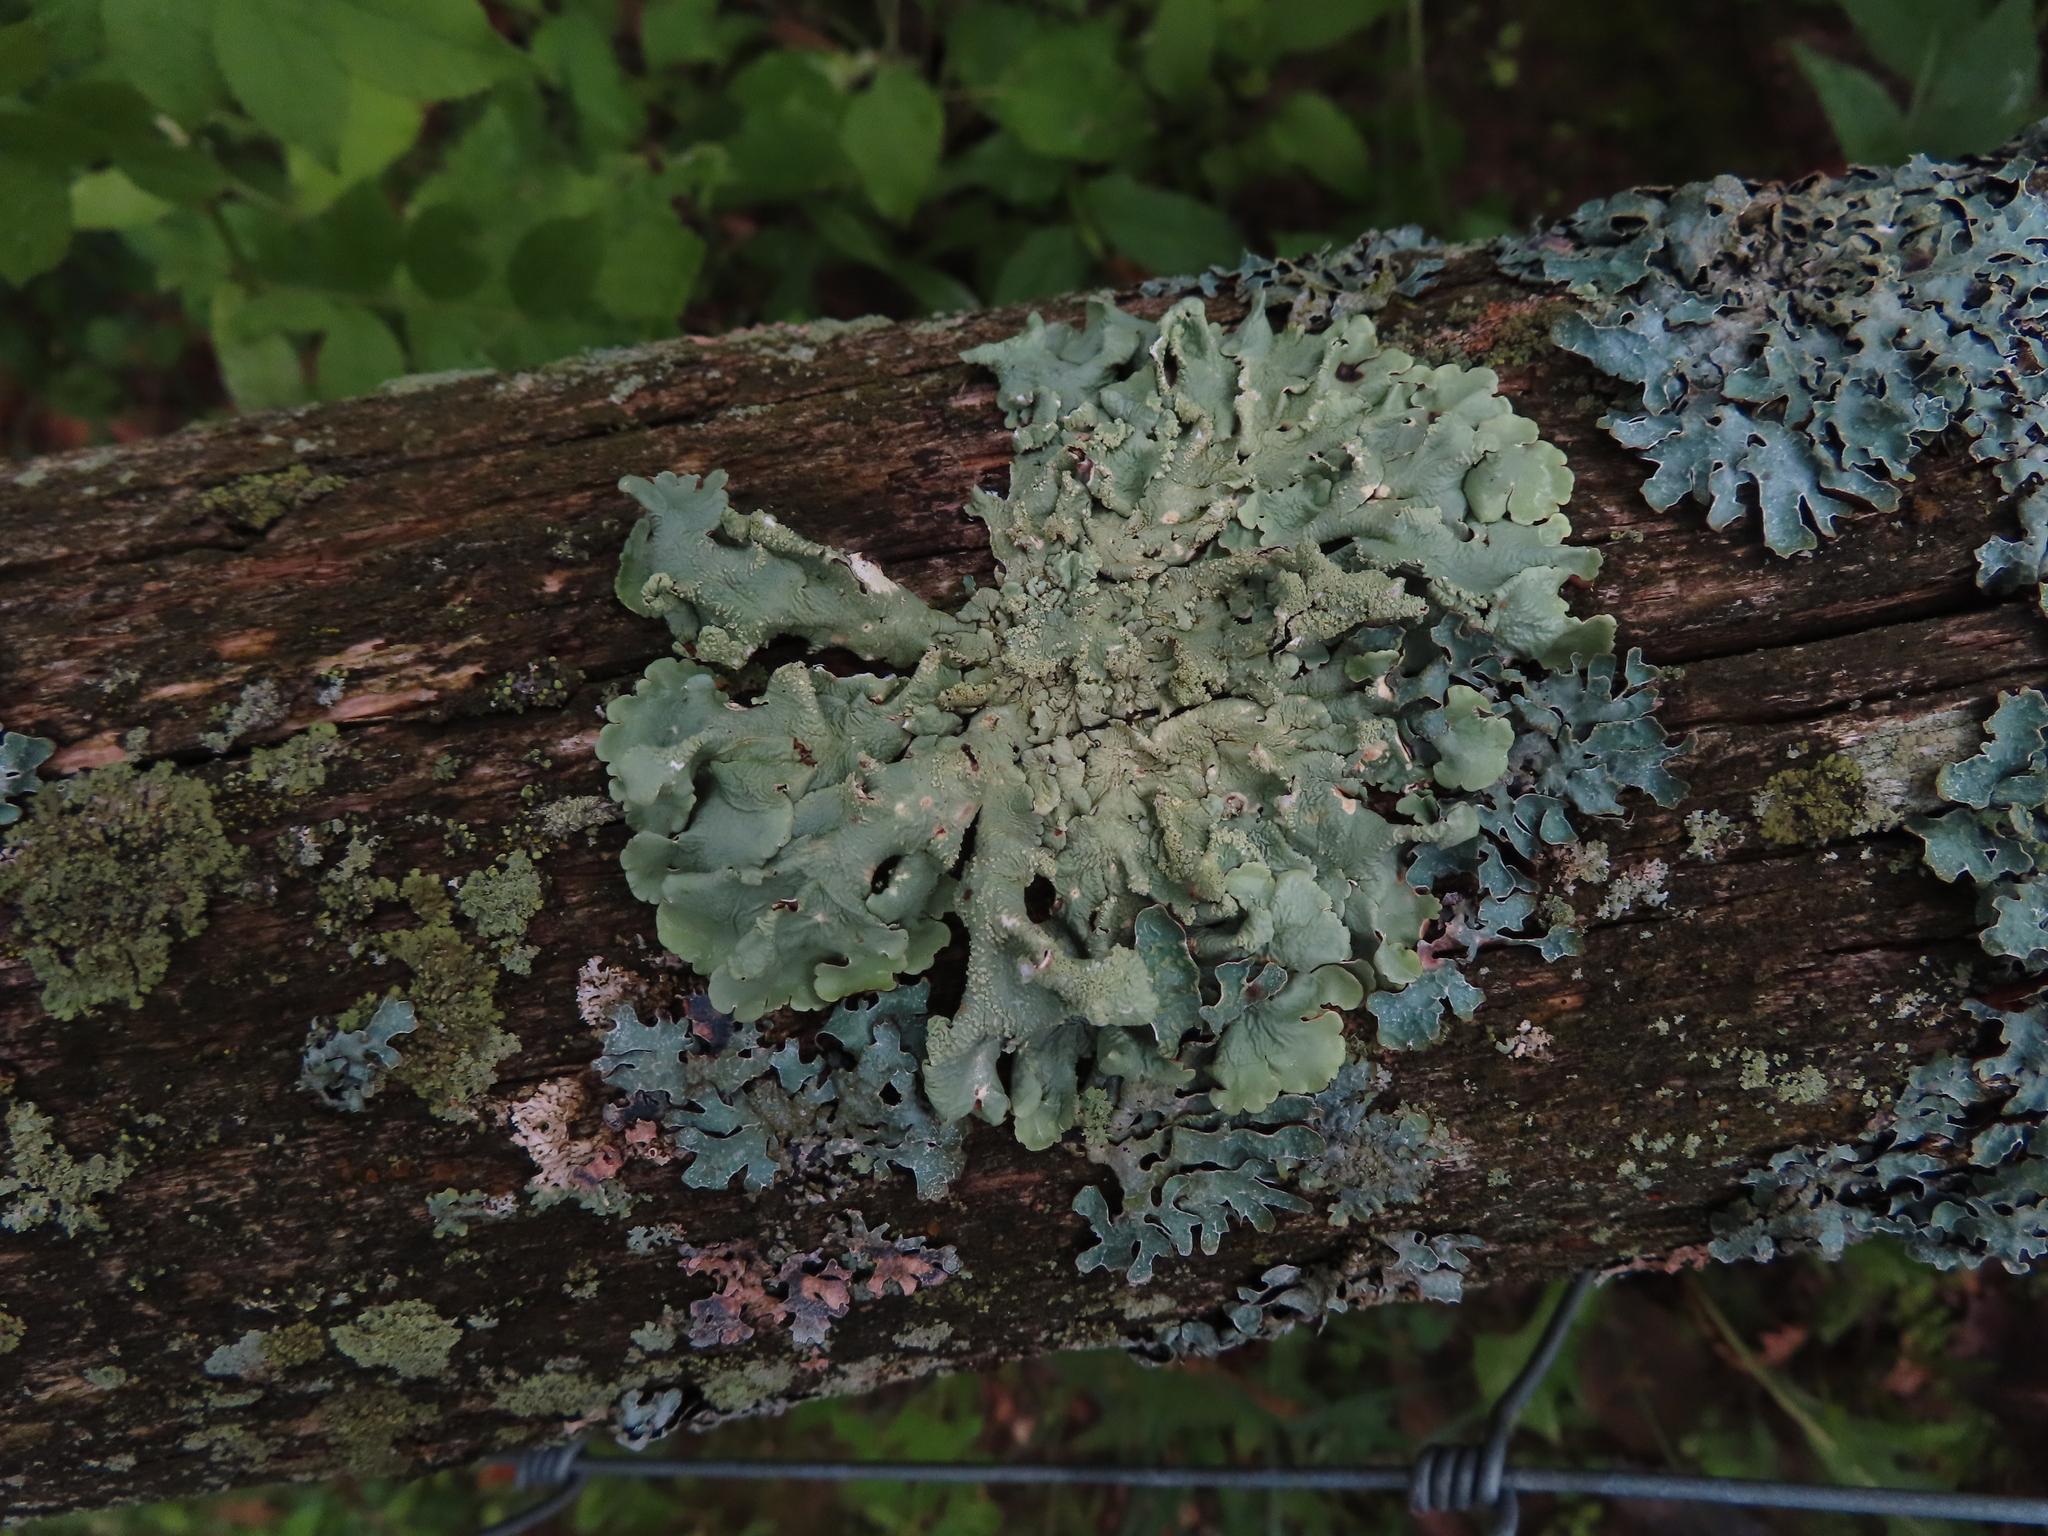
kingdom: Fungi
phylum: Ascomycota
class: Lecanoromycetes
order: Lecanorales
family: Parmeliaceae
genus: Flavoparmelia
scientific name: Flavoparmelia caperata
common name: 40-mile per hour lichen
